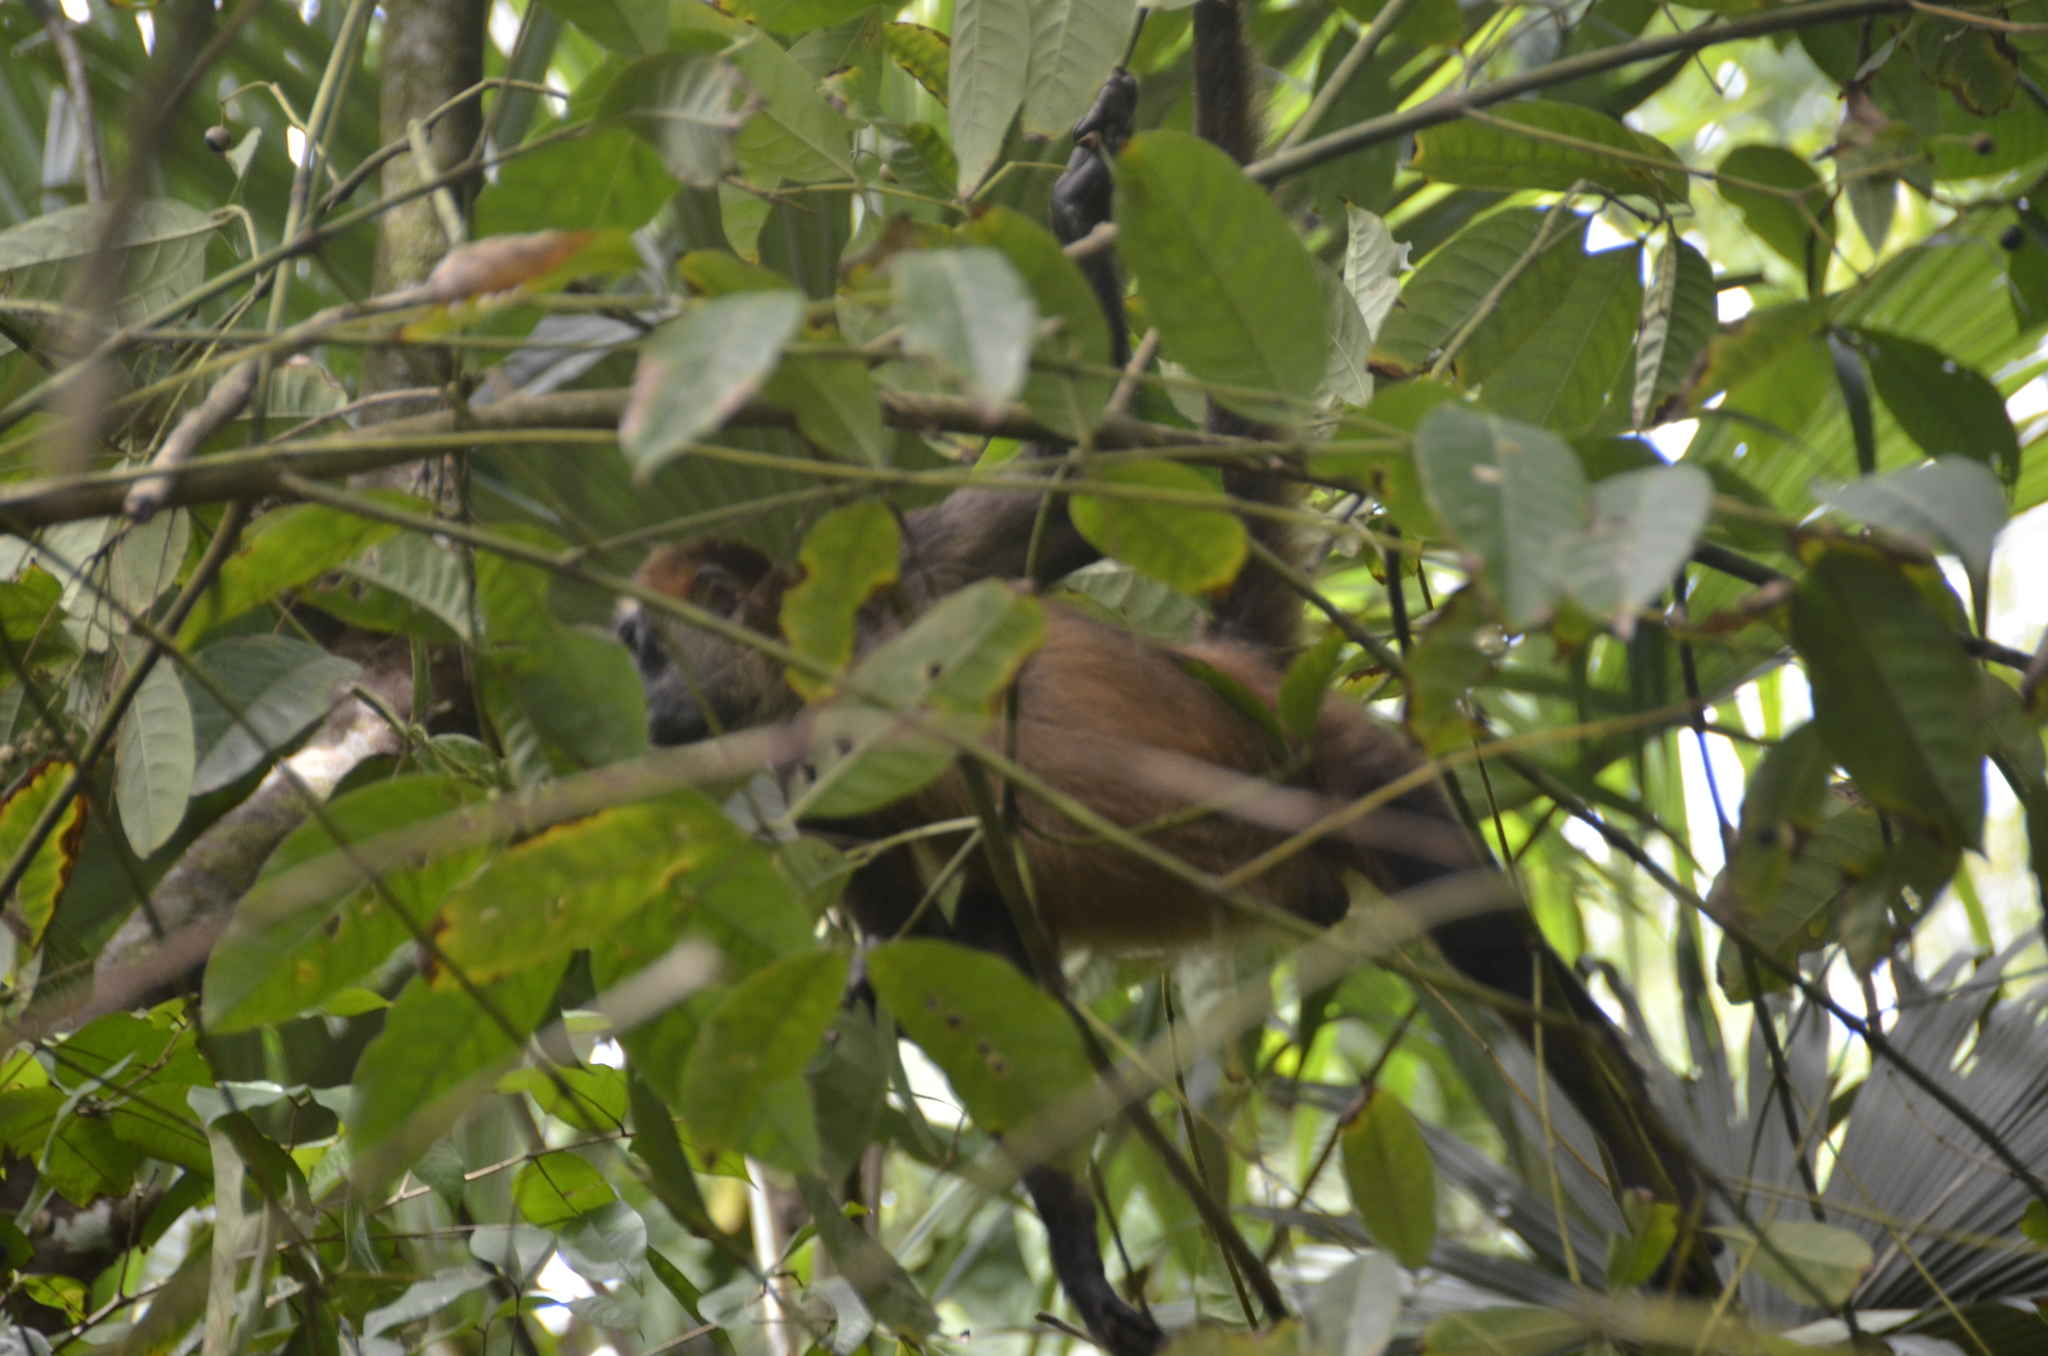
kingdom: Animalia
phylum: Chordata
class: Mammalia
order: Primates
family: Atelidae
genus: Ateles
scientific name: Ateles geoffroyi
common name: Black-handed spider monkey
